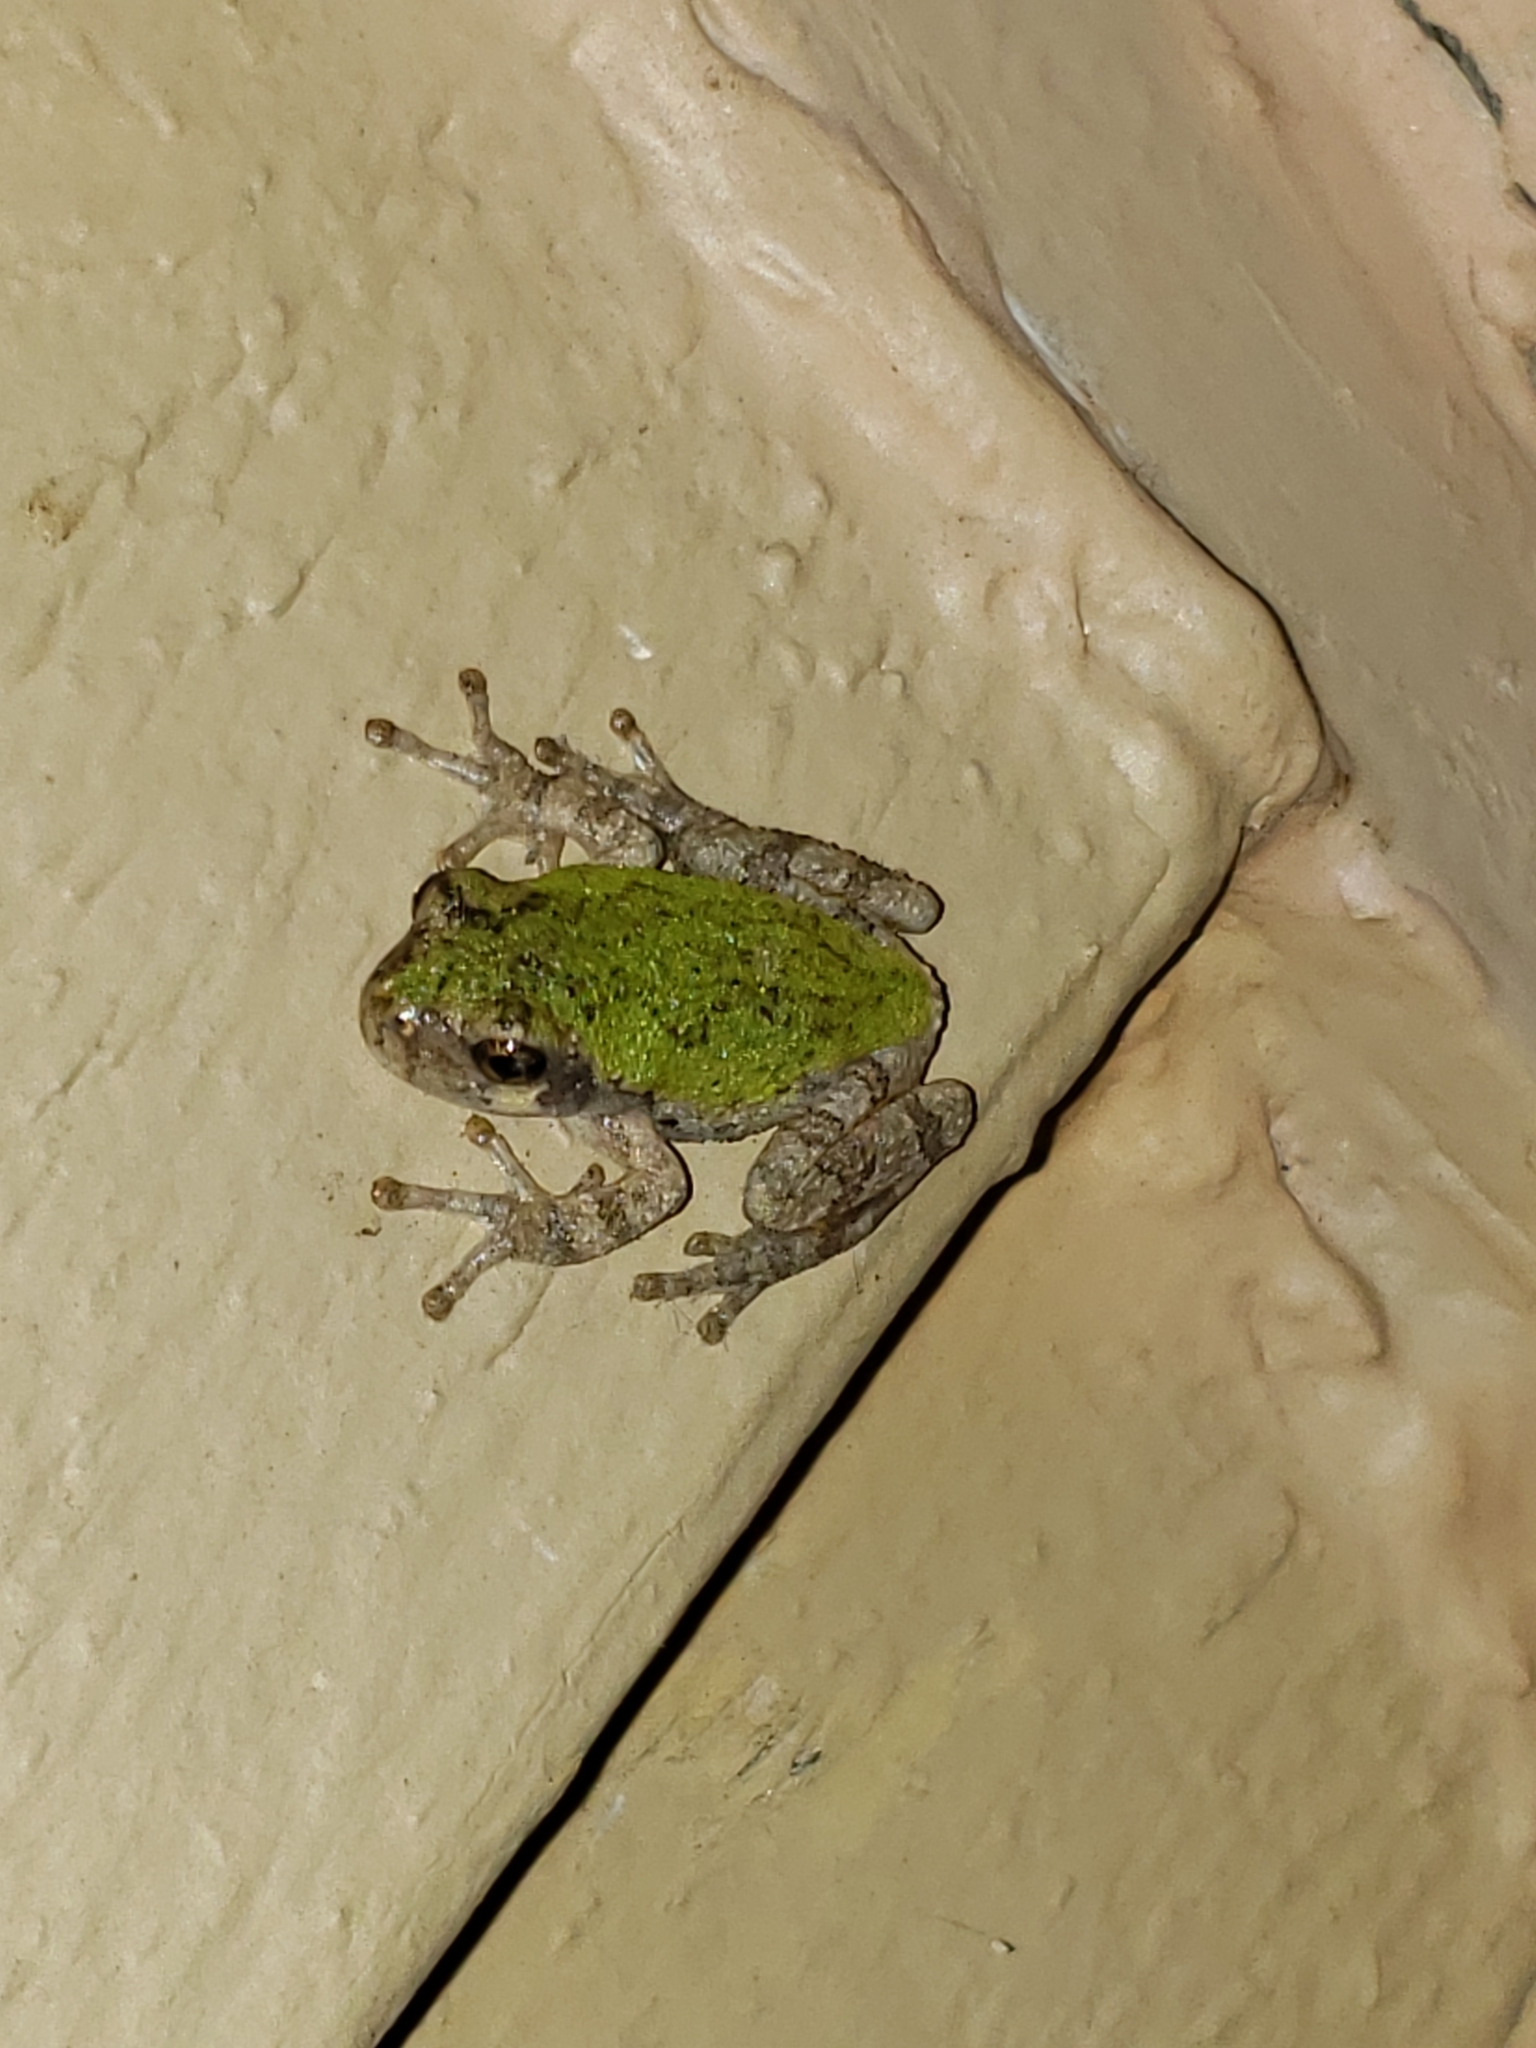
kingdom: Animalia
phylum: Chordata
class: Amphibia
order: Anura
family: Hylidae
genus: Hyla
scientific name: Hyla
